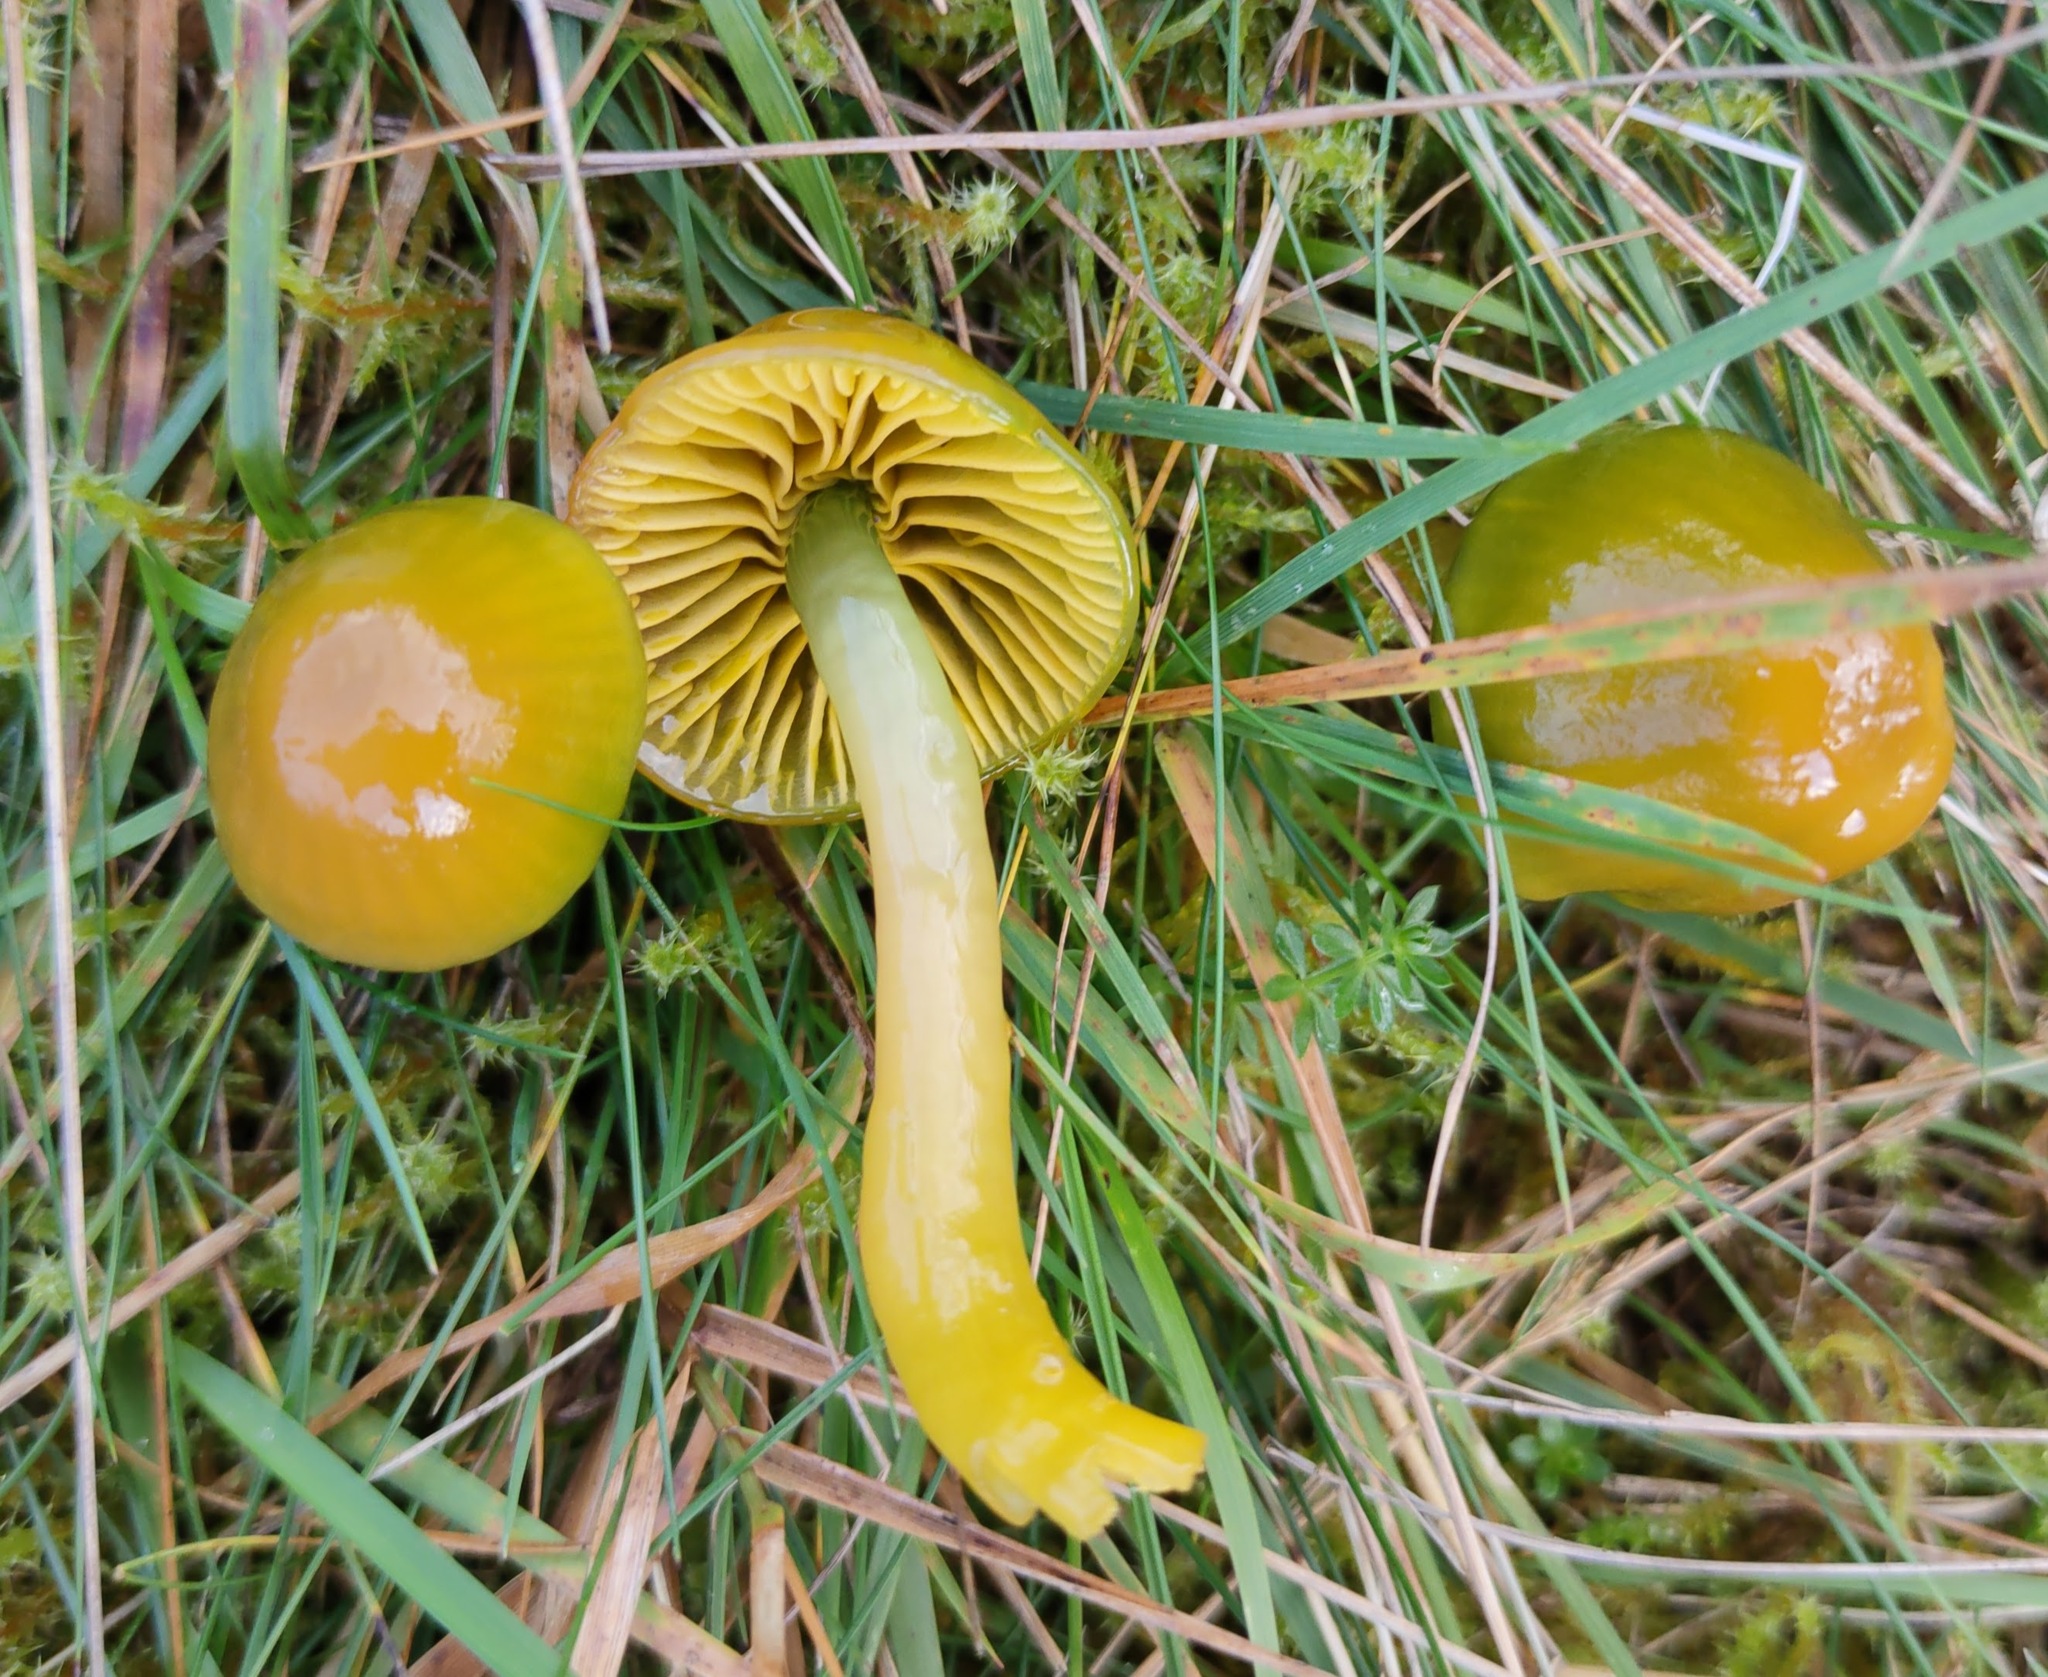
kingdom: Fungi
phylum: Basidiomycota
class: Agaricomycetes
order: Agaricales
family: Hygrophoraceae
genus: Gliophorus
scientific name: Gliophorus psittacinus
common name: Parrot wax-cap
